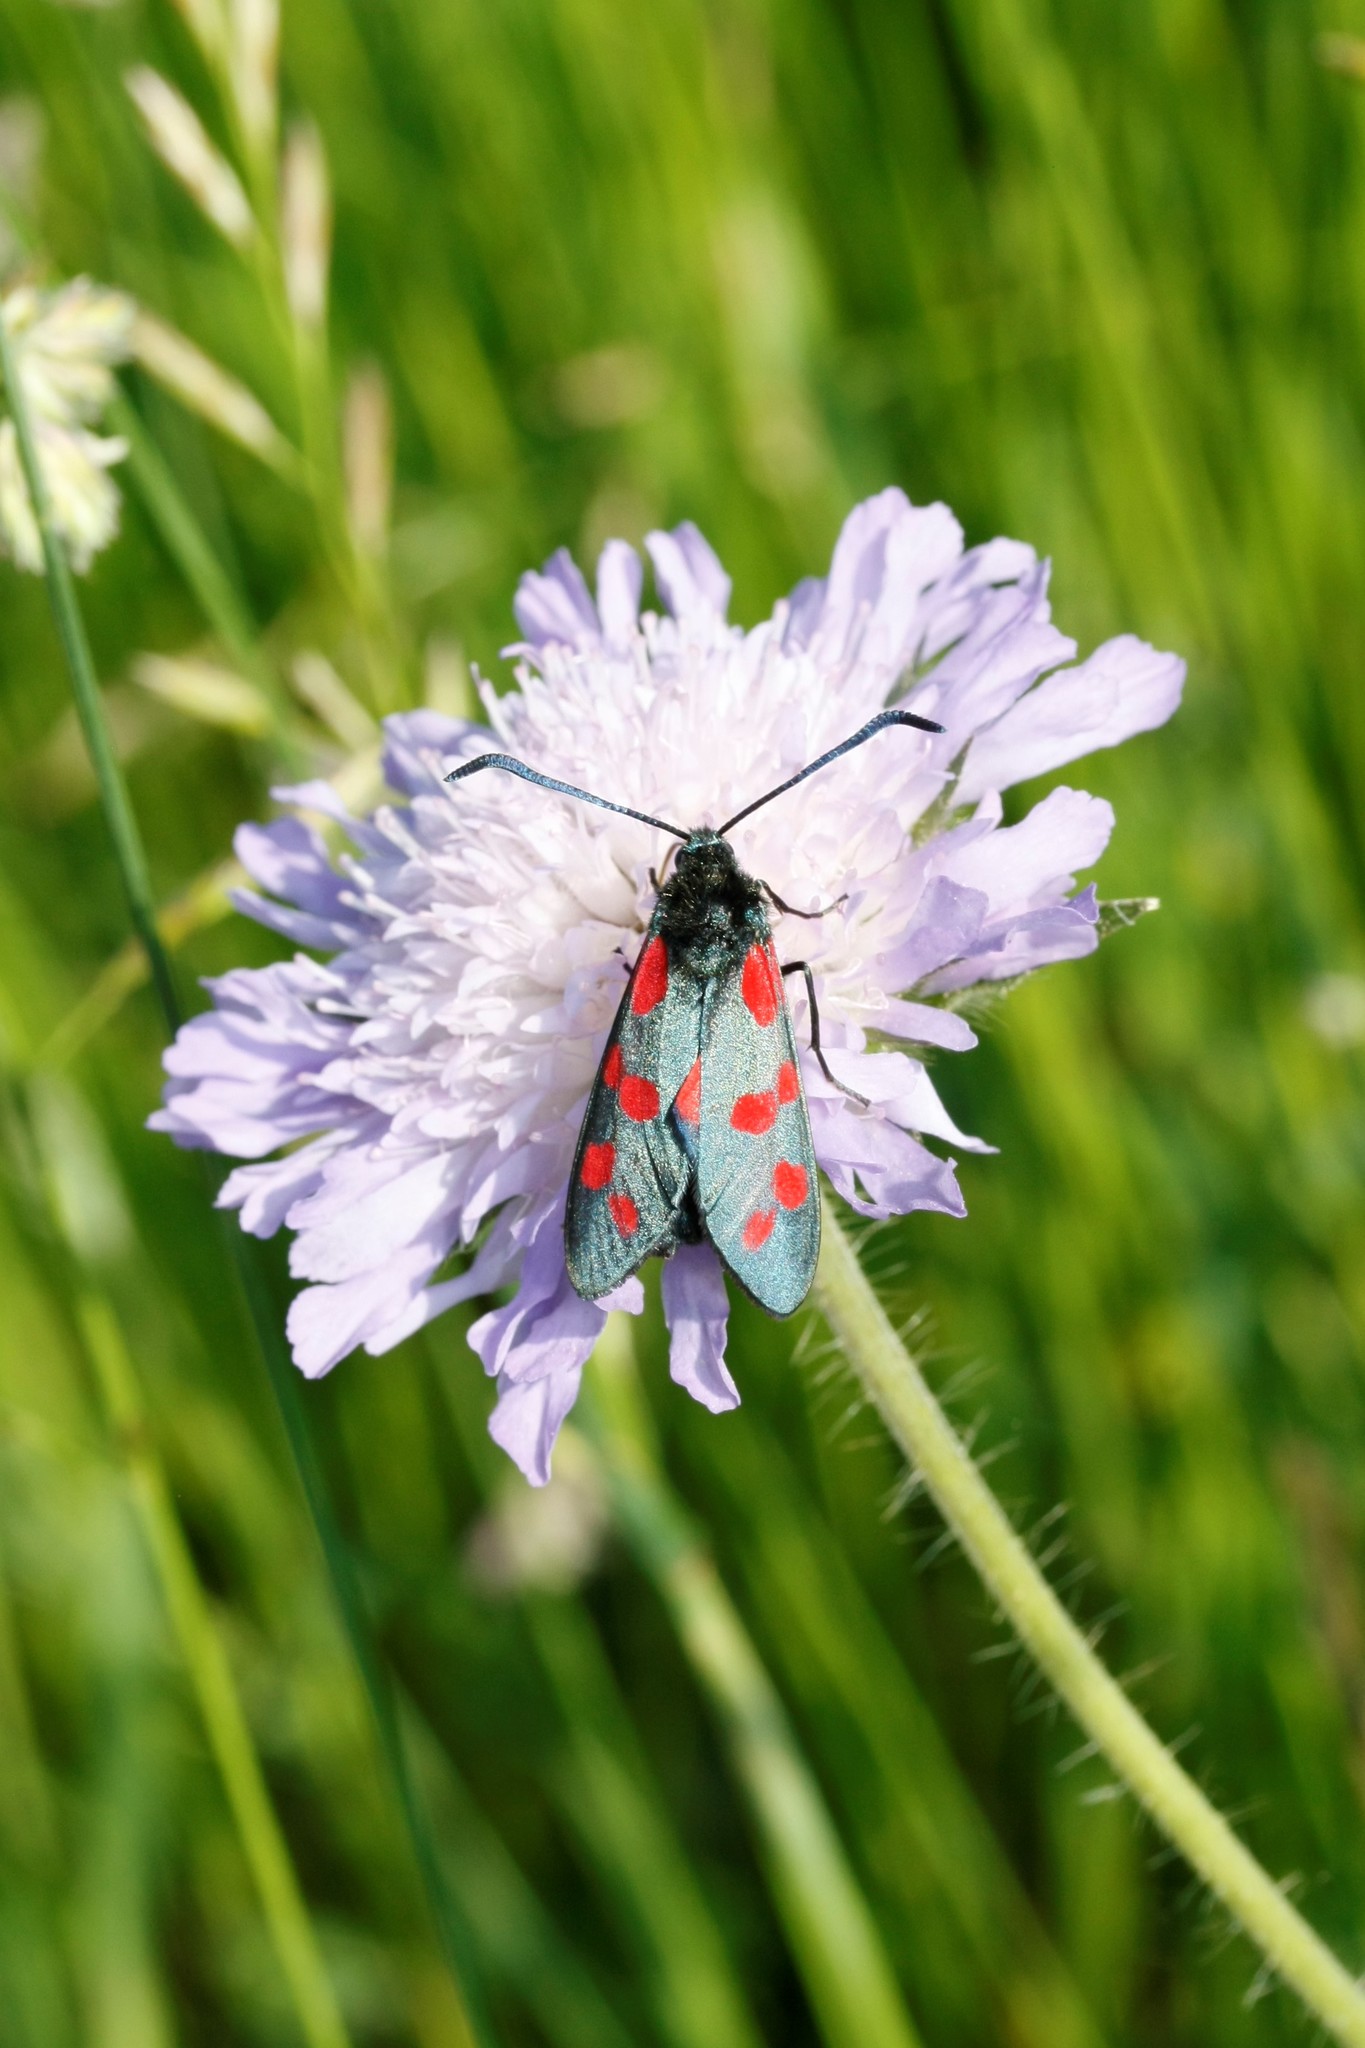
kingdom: Animalia
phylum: Arthropoda
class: Insecta
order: Lepidoptera
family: Zygaenidae
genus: Zygaena
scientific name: Zygaena filipendulae
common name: Six-spot burnet
